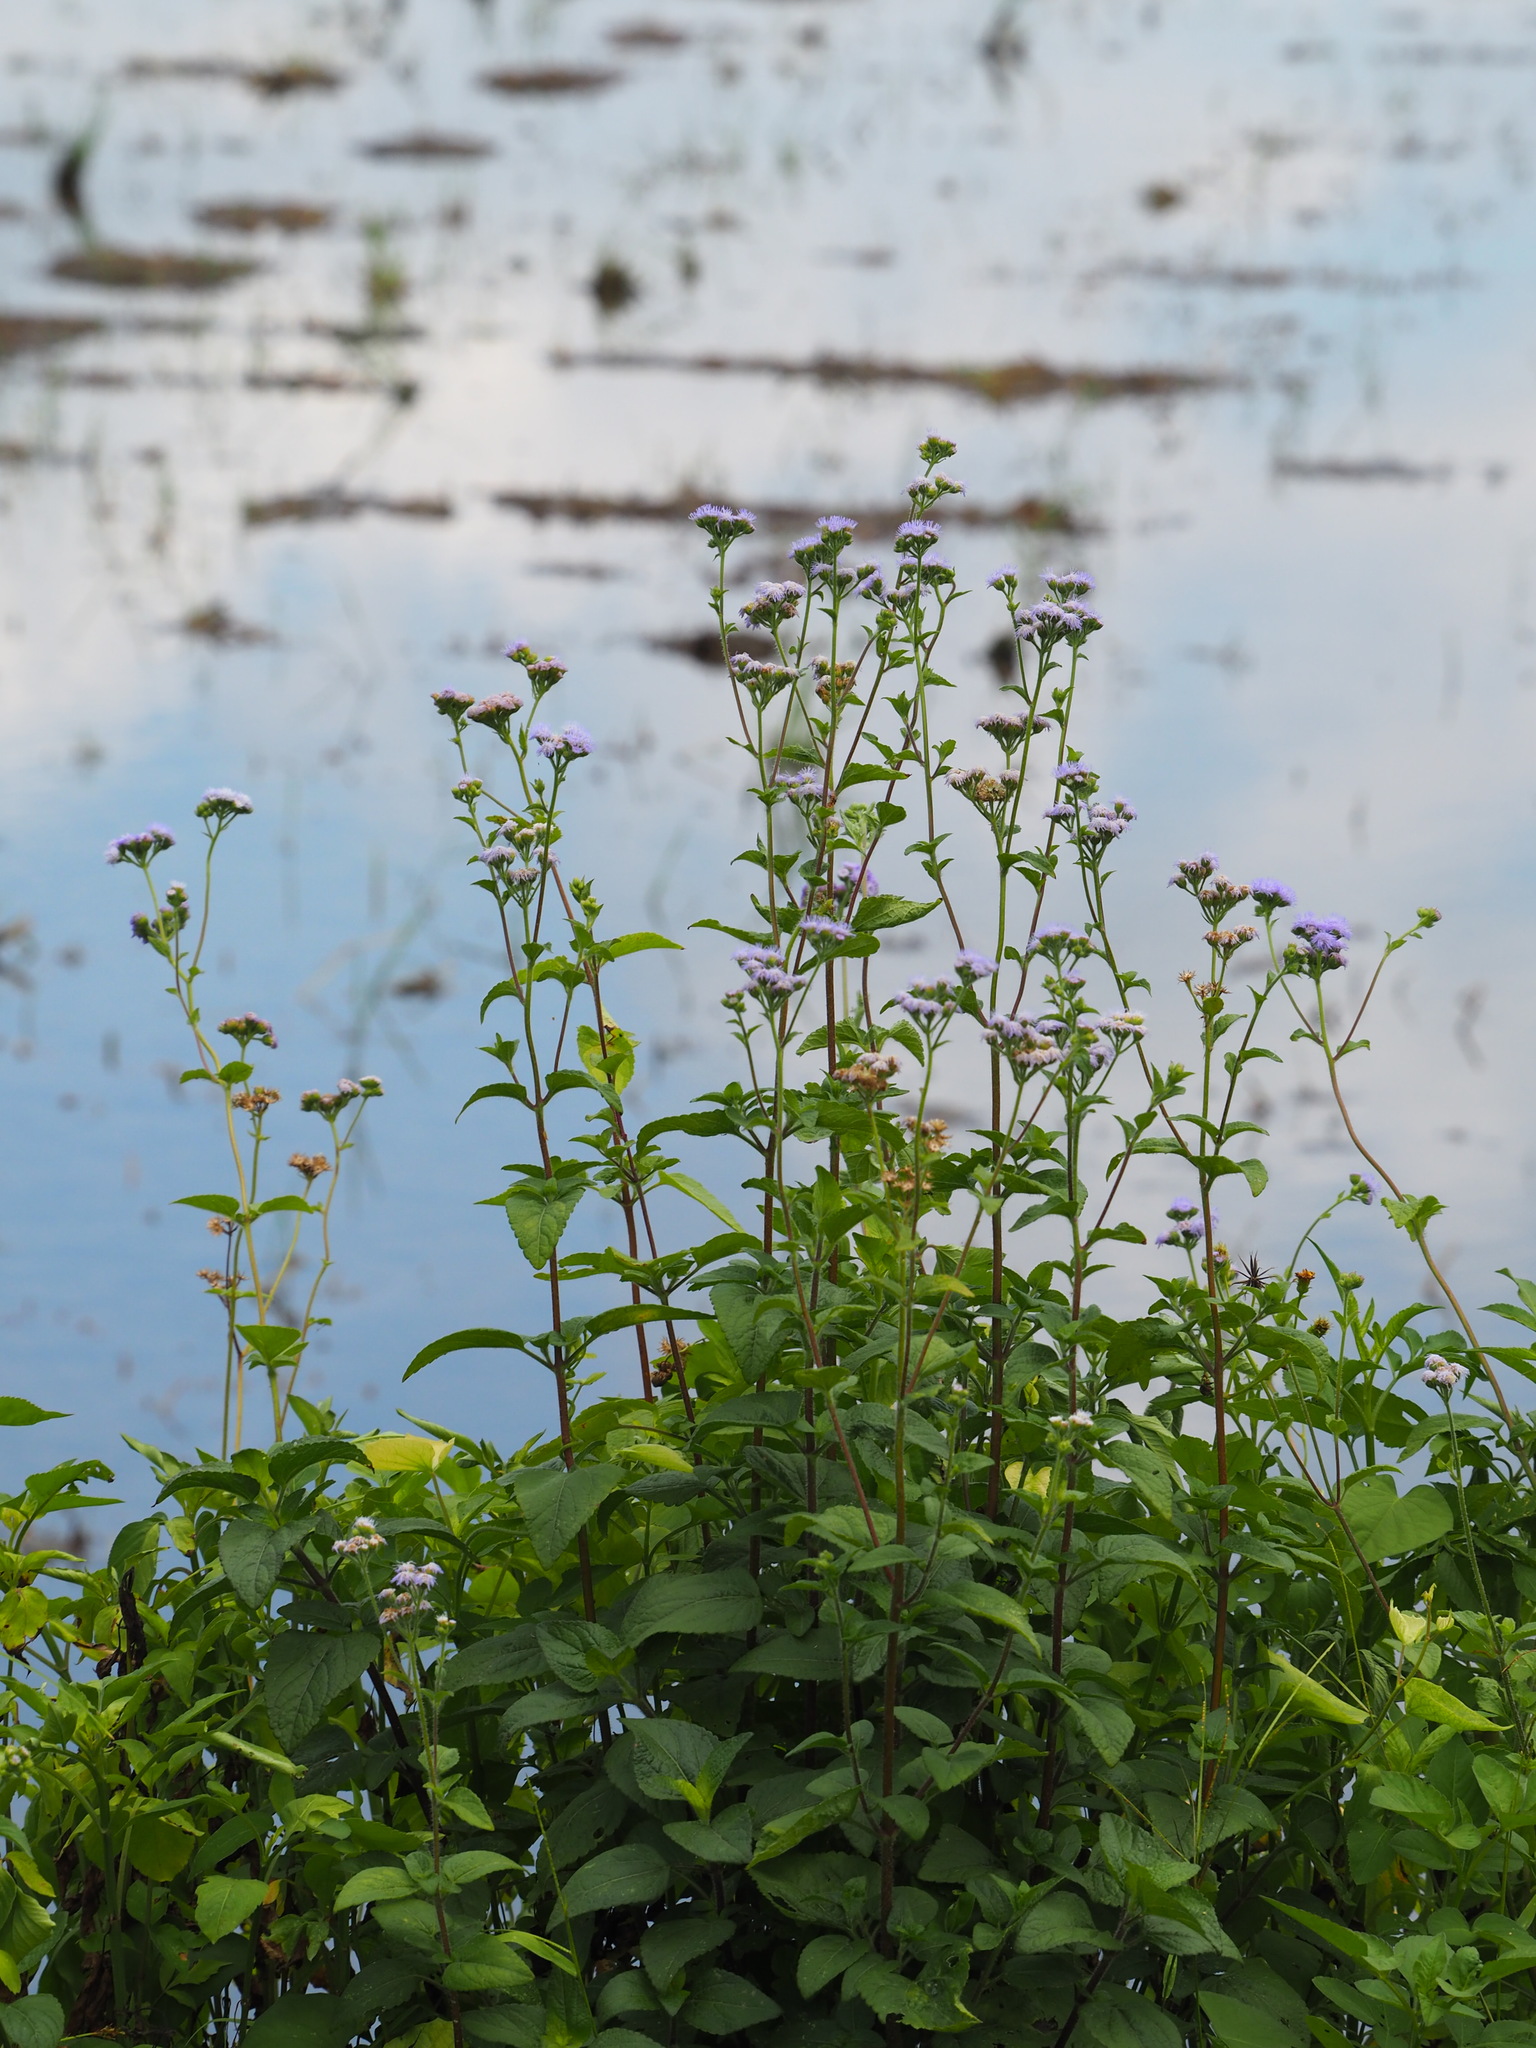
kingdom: Plantae
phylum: Tracheophyta
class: Magnoliopsida
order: Asterales
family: Asteraceae
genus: Ageratum
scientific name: Ageratum houstonianum
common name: Bluemink
